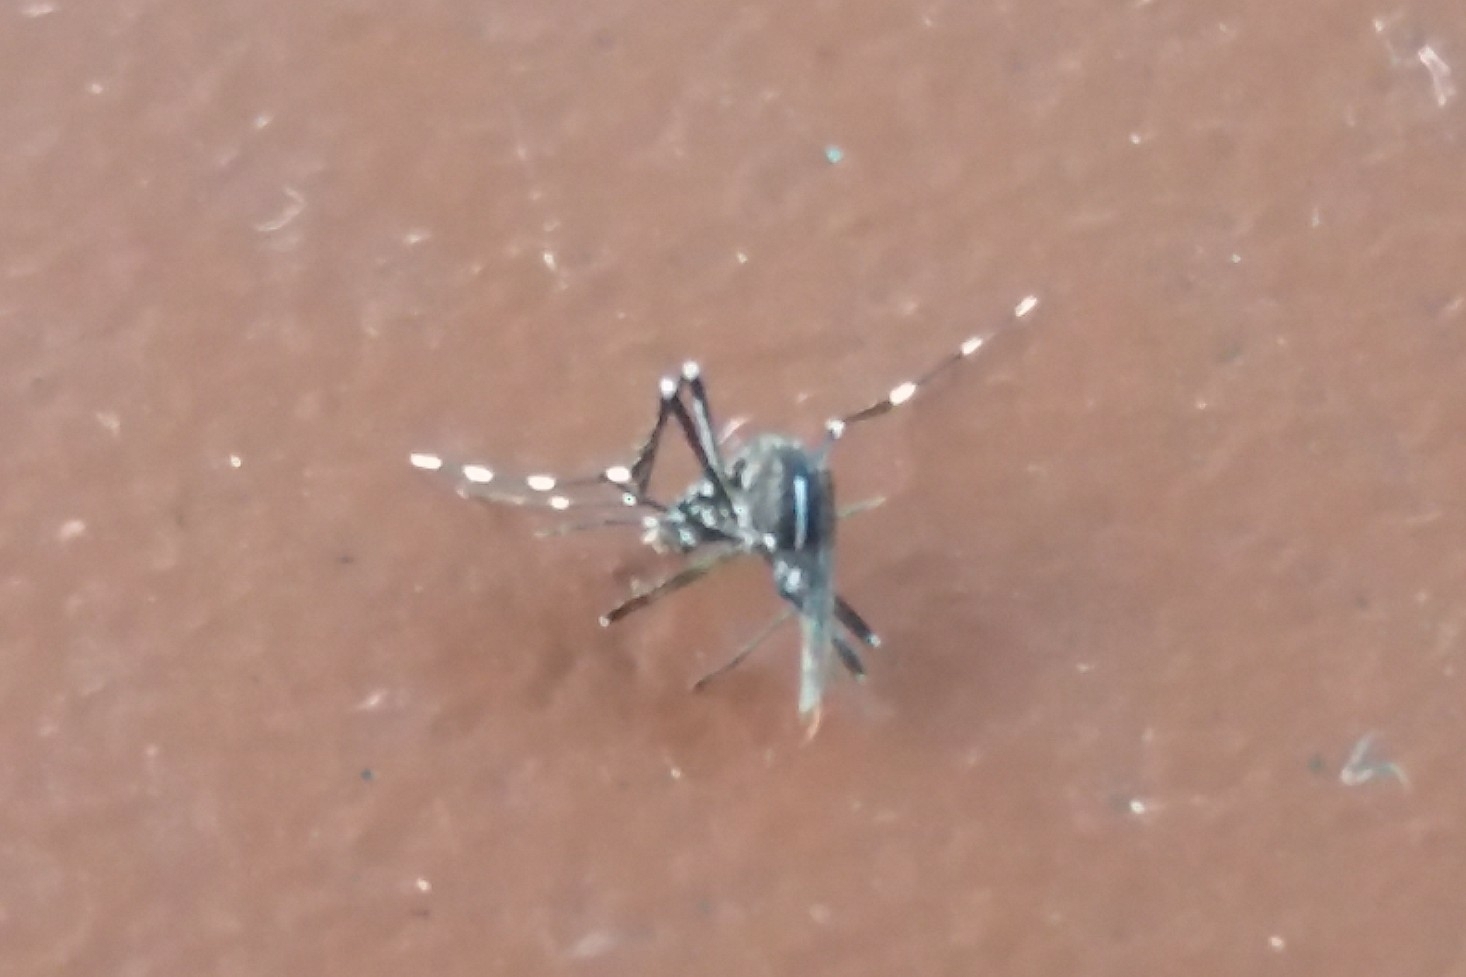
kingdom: Animalia
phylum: Arthropoda
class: Insecta
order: Diptera
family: Culicidae
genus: Aedes
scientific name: Aedes albopictus
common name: Tiger mosquito
